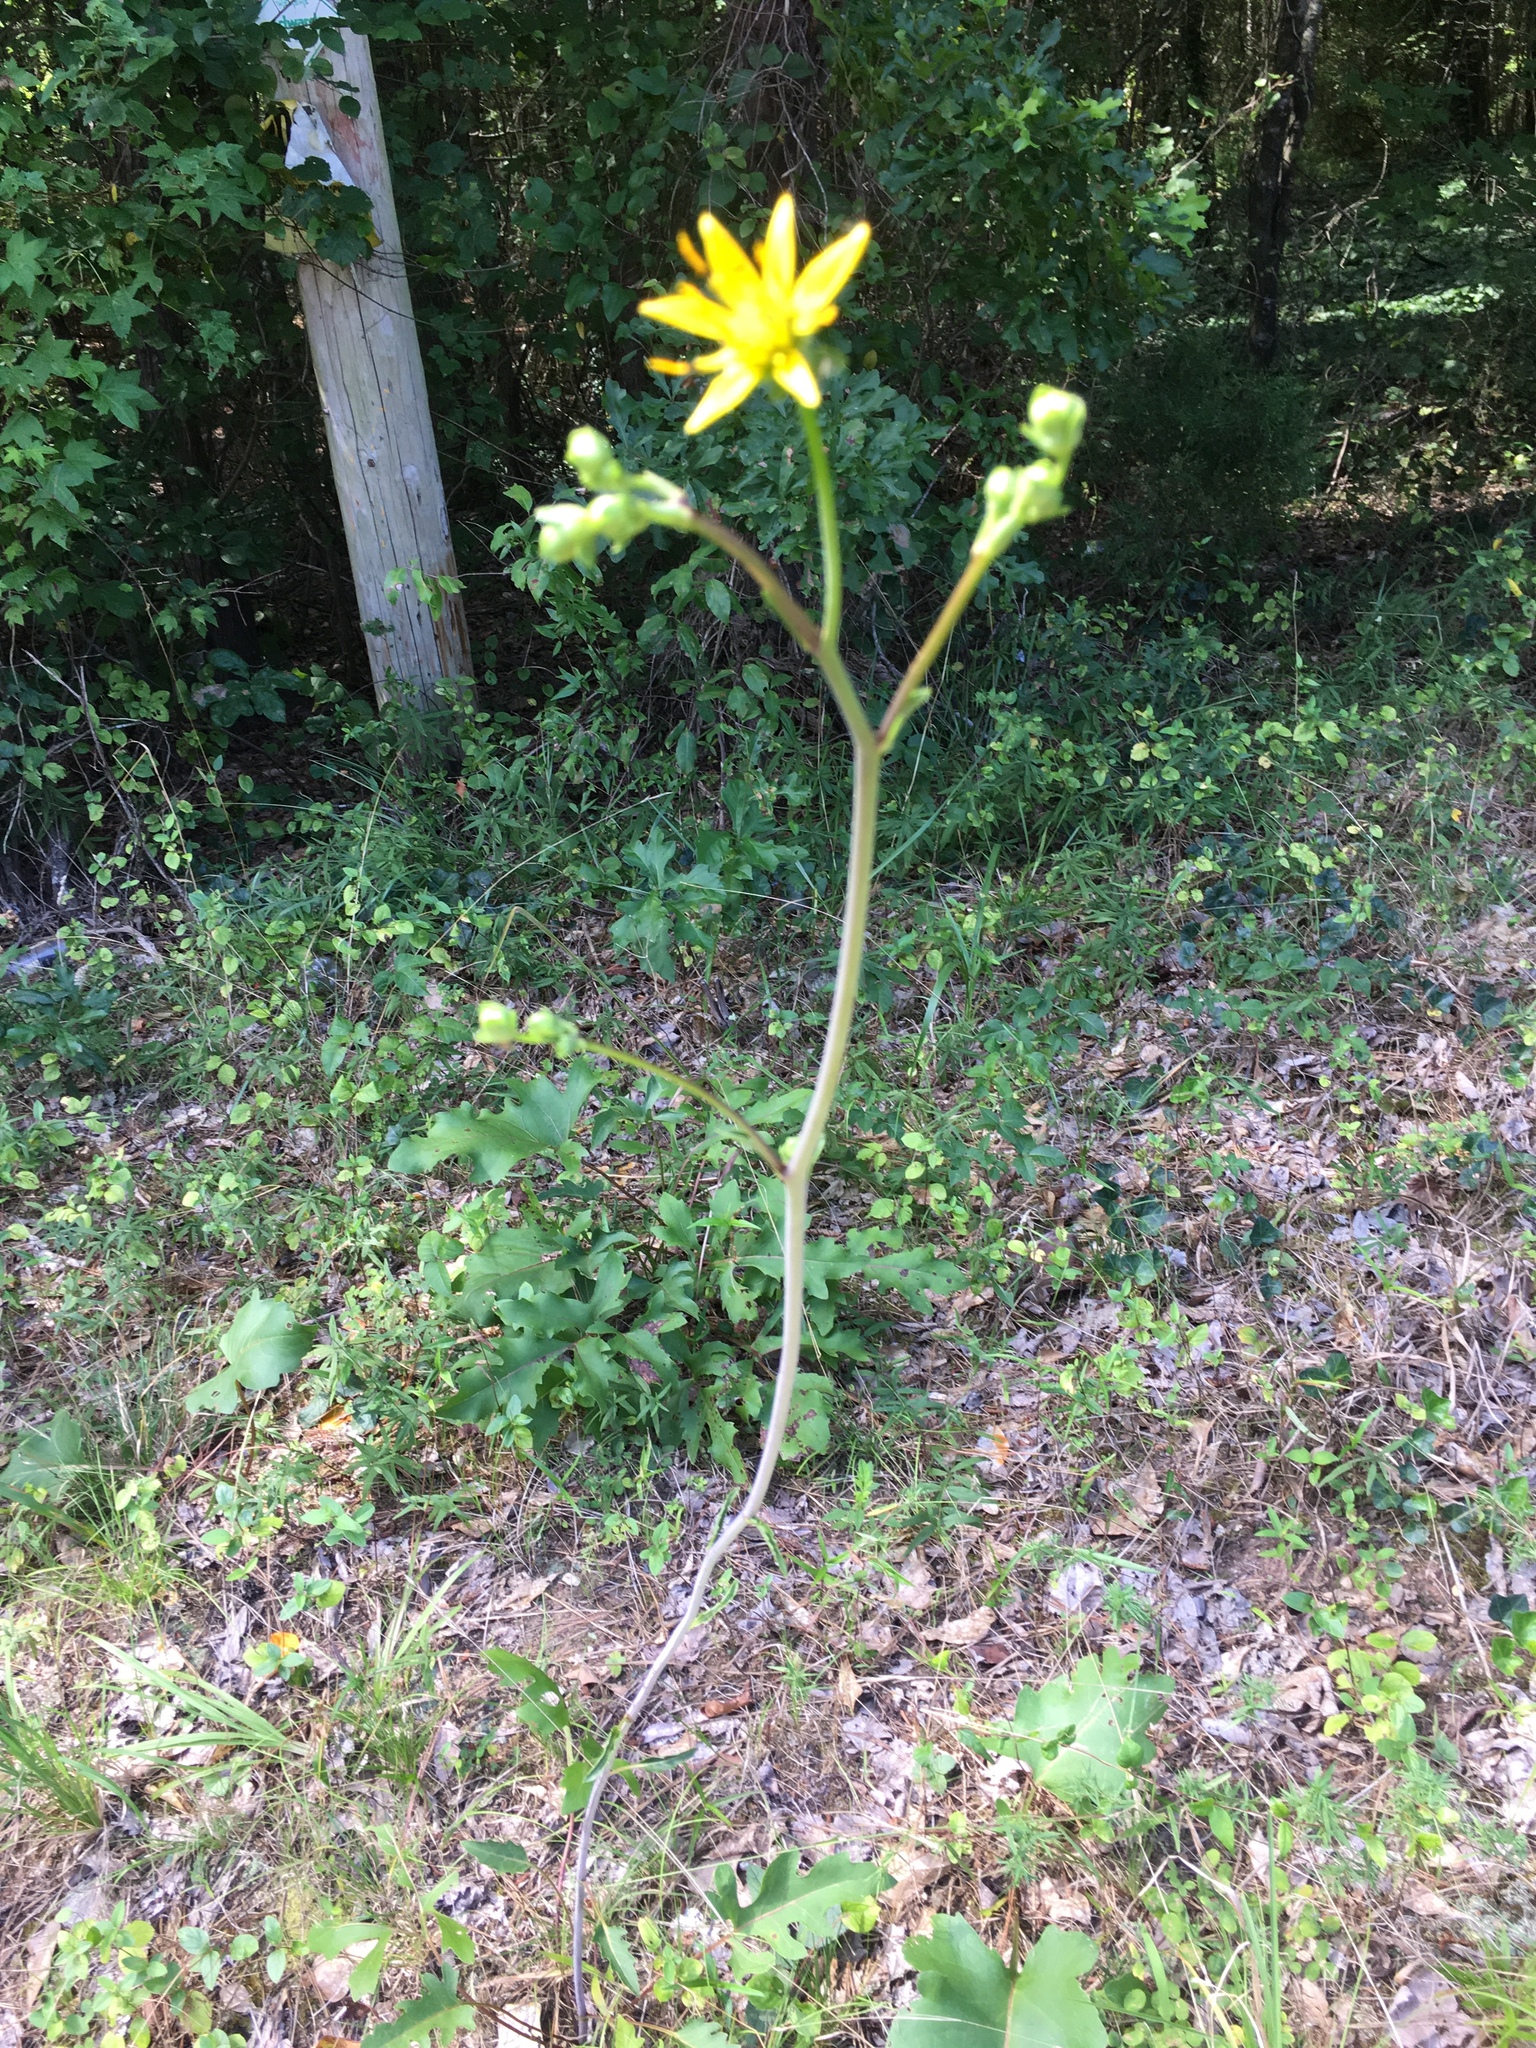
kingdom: Plantae
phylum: Tracheophyta
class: Magnoliopsida
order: Asterales
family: Asteraceae
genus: Silphium
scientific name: Silphium compositum
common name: Lesser basal-leaf rosinweed
